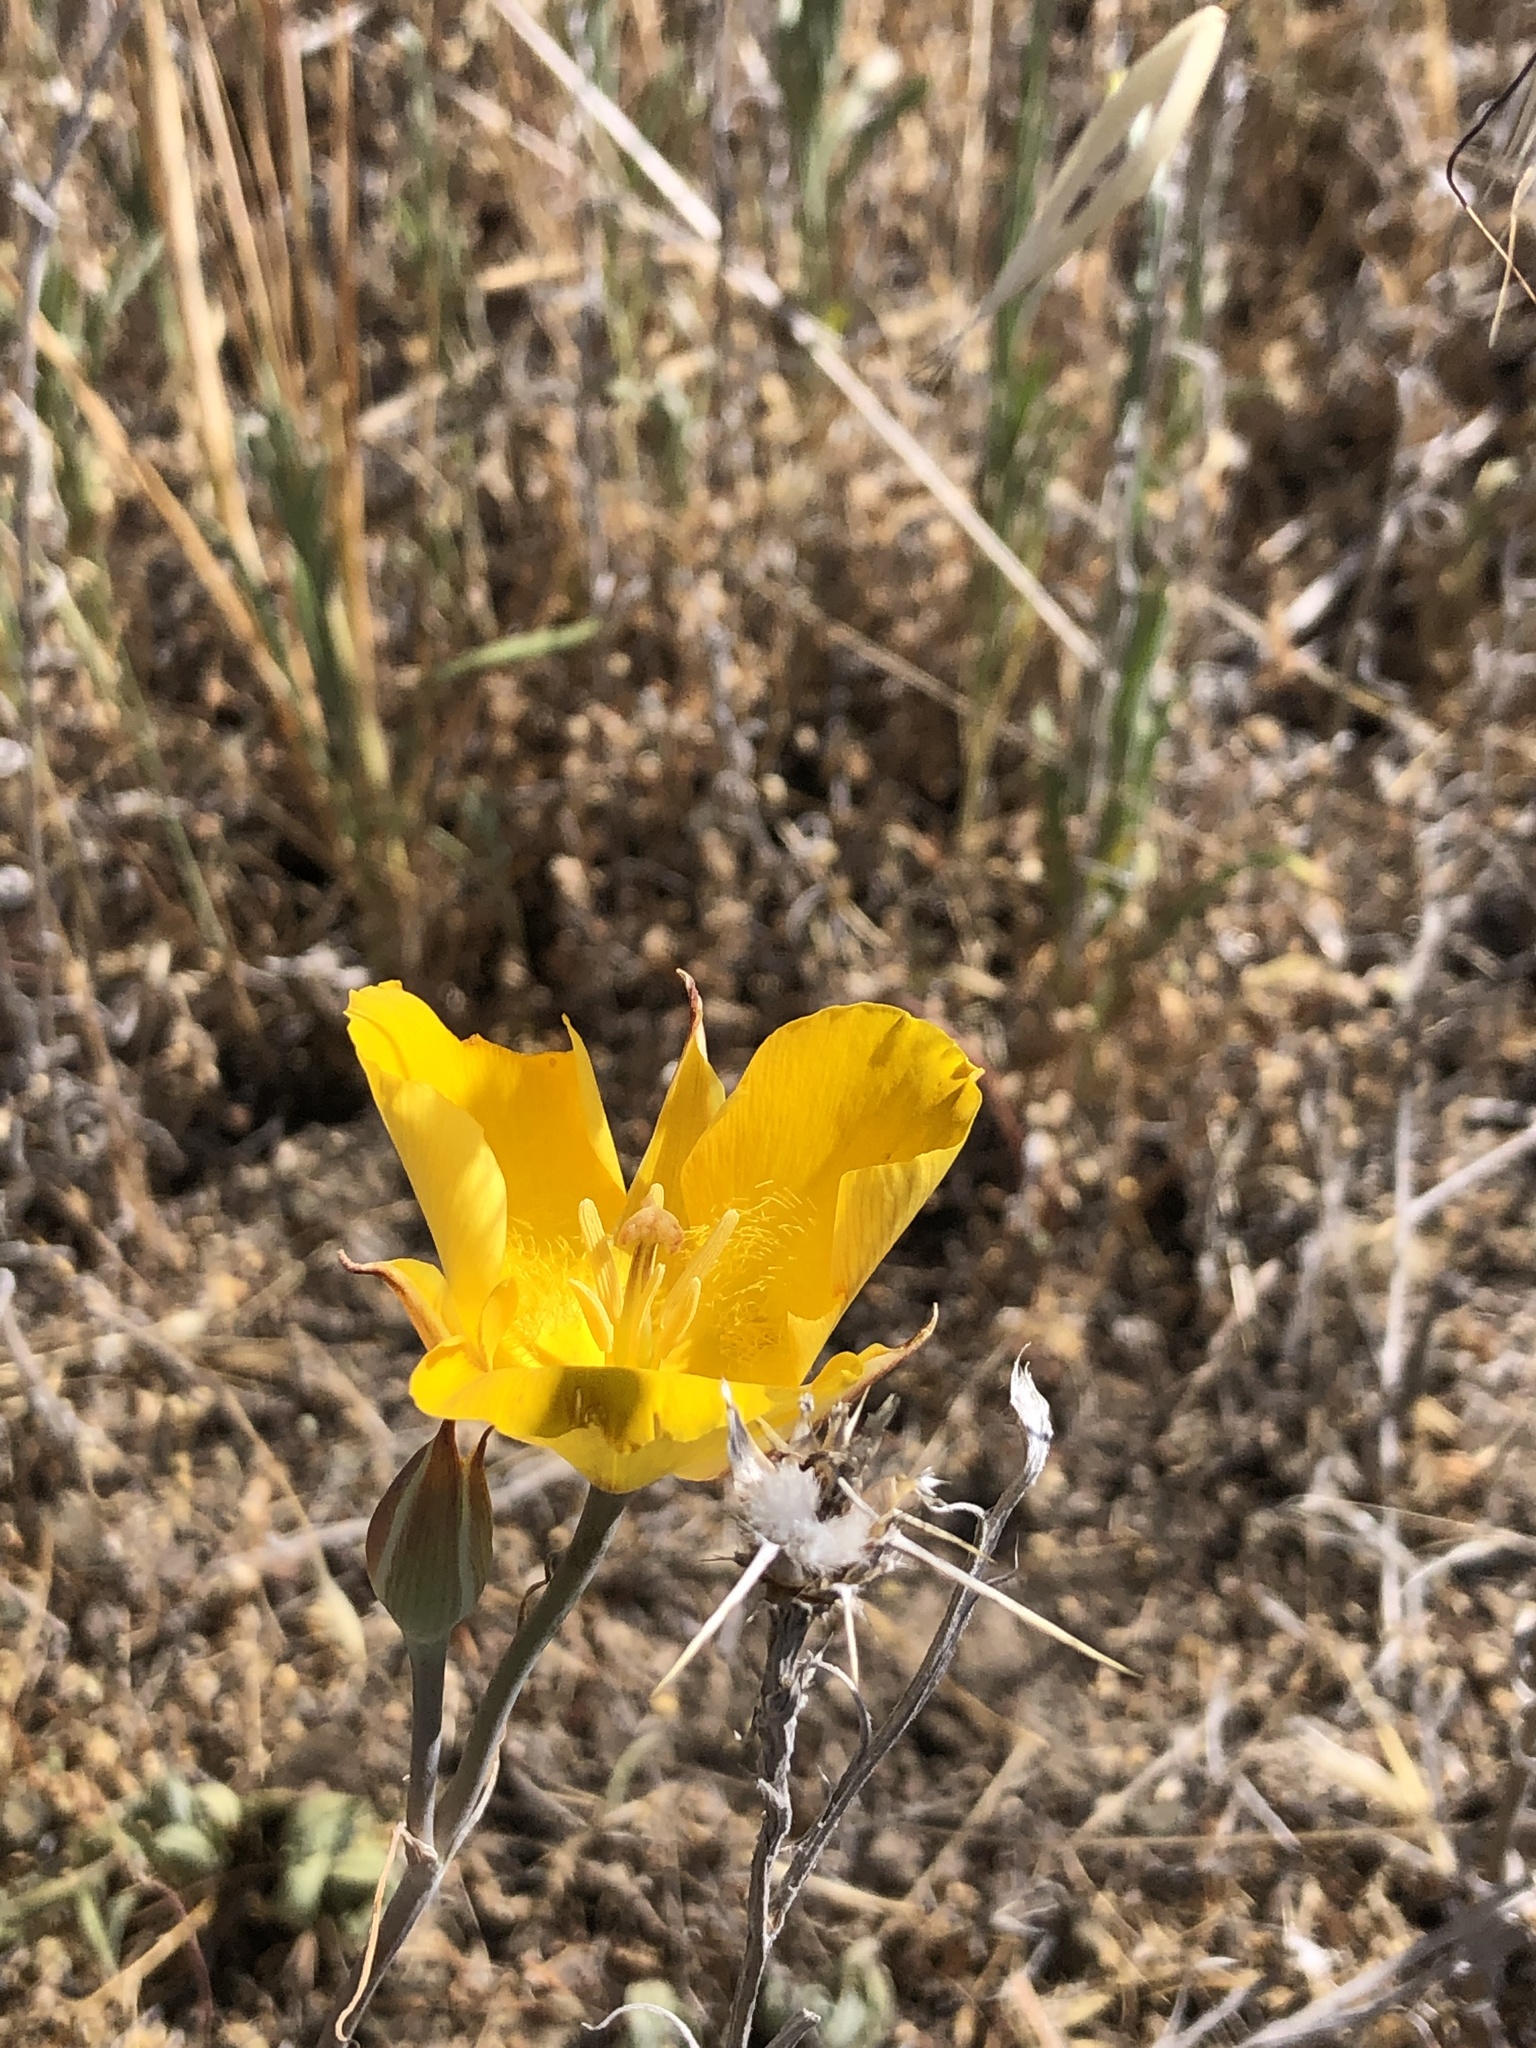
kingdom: Plantae
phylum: Tracheophyta
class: Liliopsida
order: Liliales
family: Liliaceae
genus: Calochortus
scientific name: Calochortus clavatus
